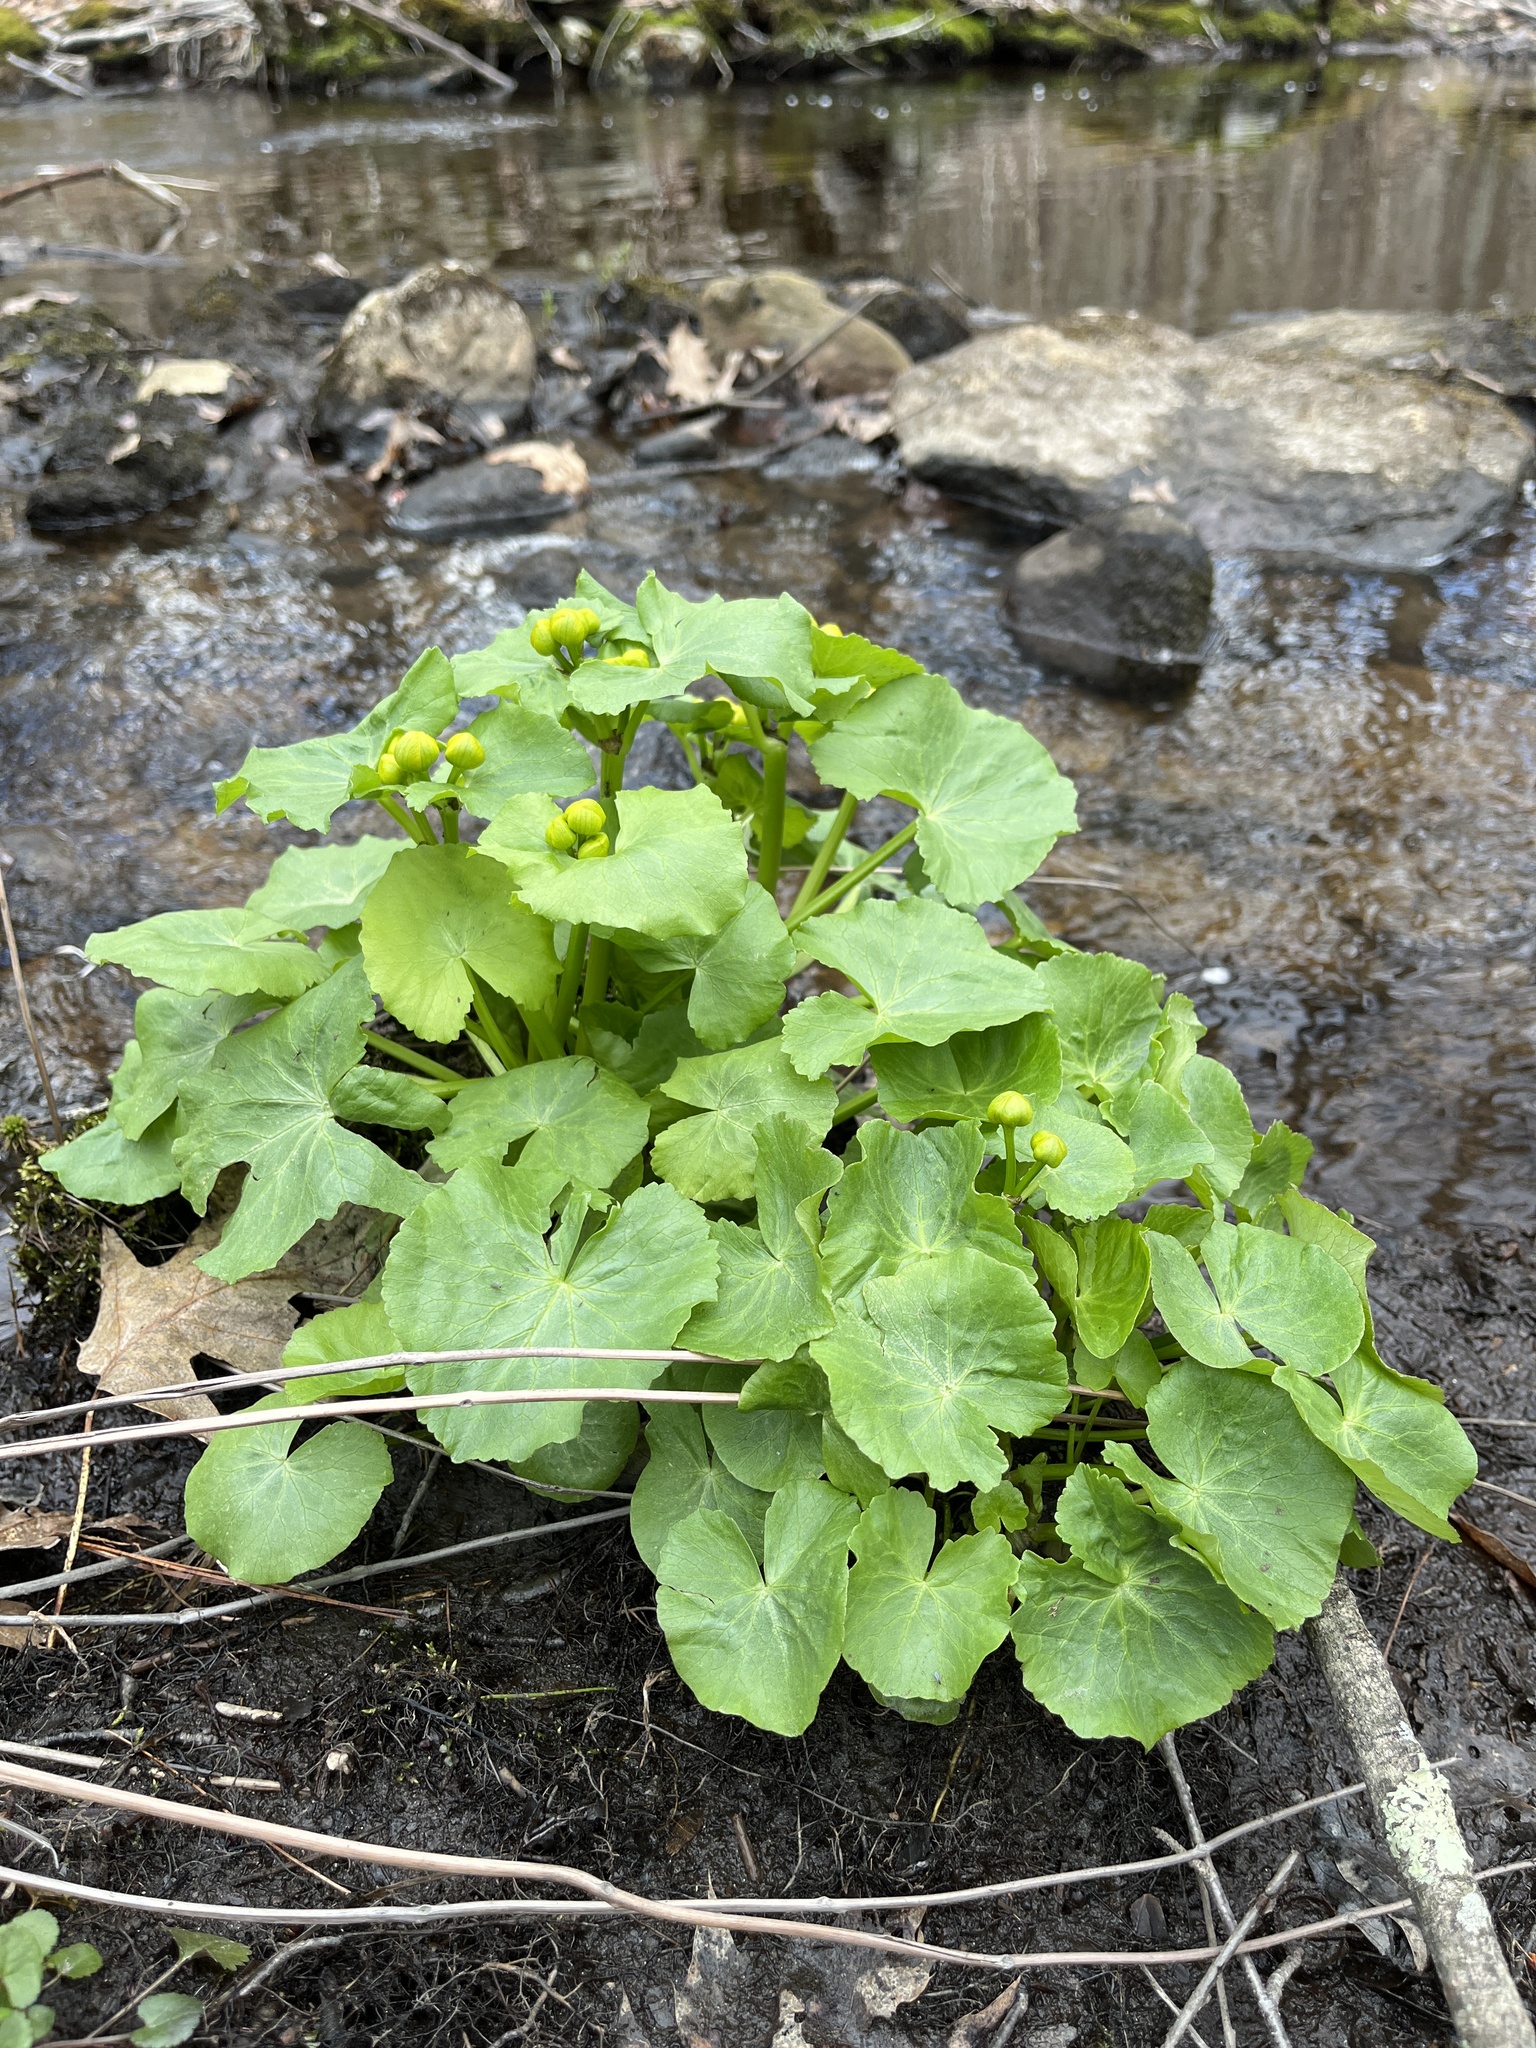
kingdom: Plantae
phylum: Tracheophyta
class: Magnoliopsida
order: Ranunculales
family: Ranunculaceae
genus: Caltha
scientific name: Caltha palustris
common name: Marsh marigold
